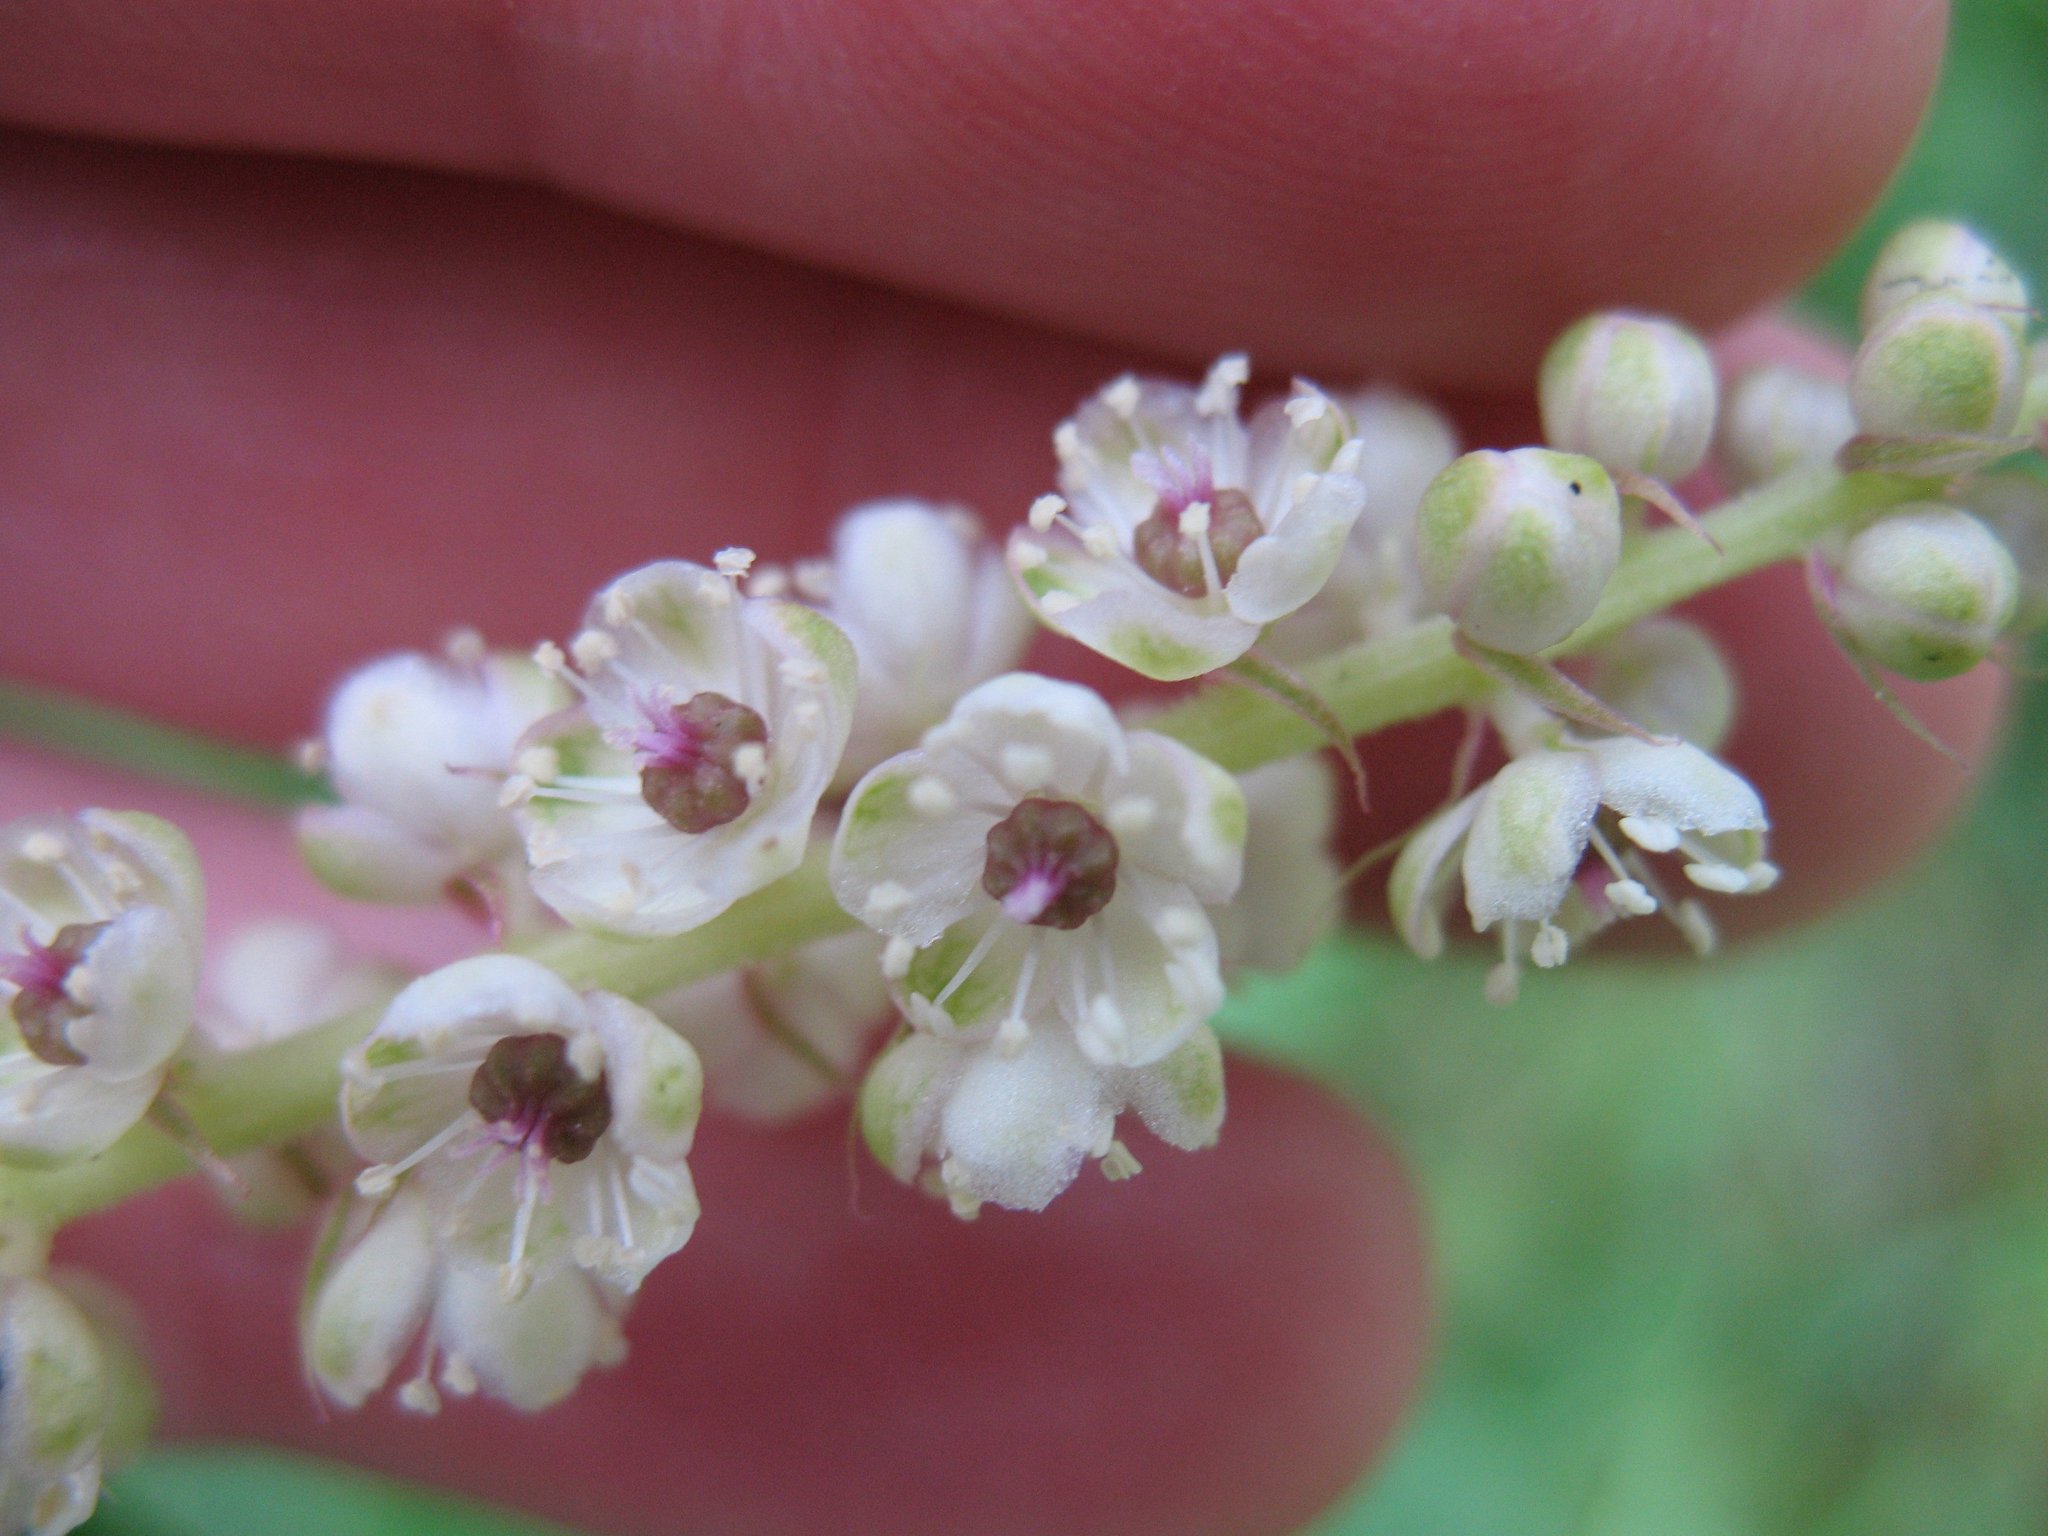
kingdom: Plantae
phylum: Tracheophyta
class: Magnoliopsida
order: Caryophyllales
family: Phytolaccaceae
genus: Phytolacca
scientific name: Phytolacca icosandra
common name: Button pokeweed
